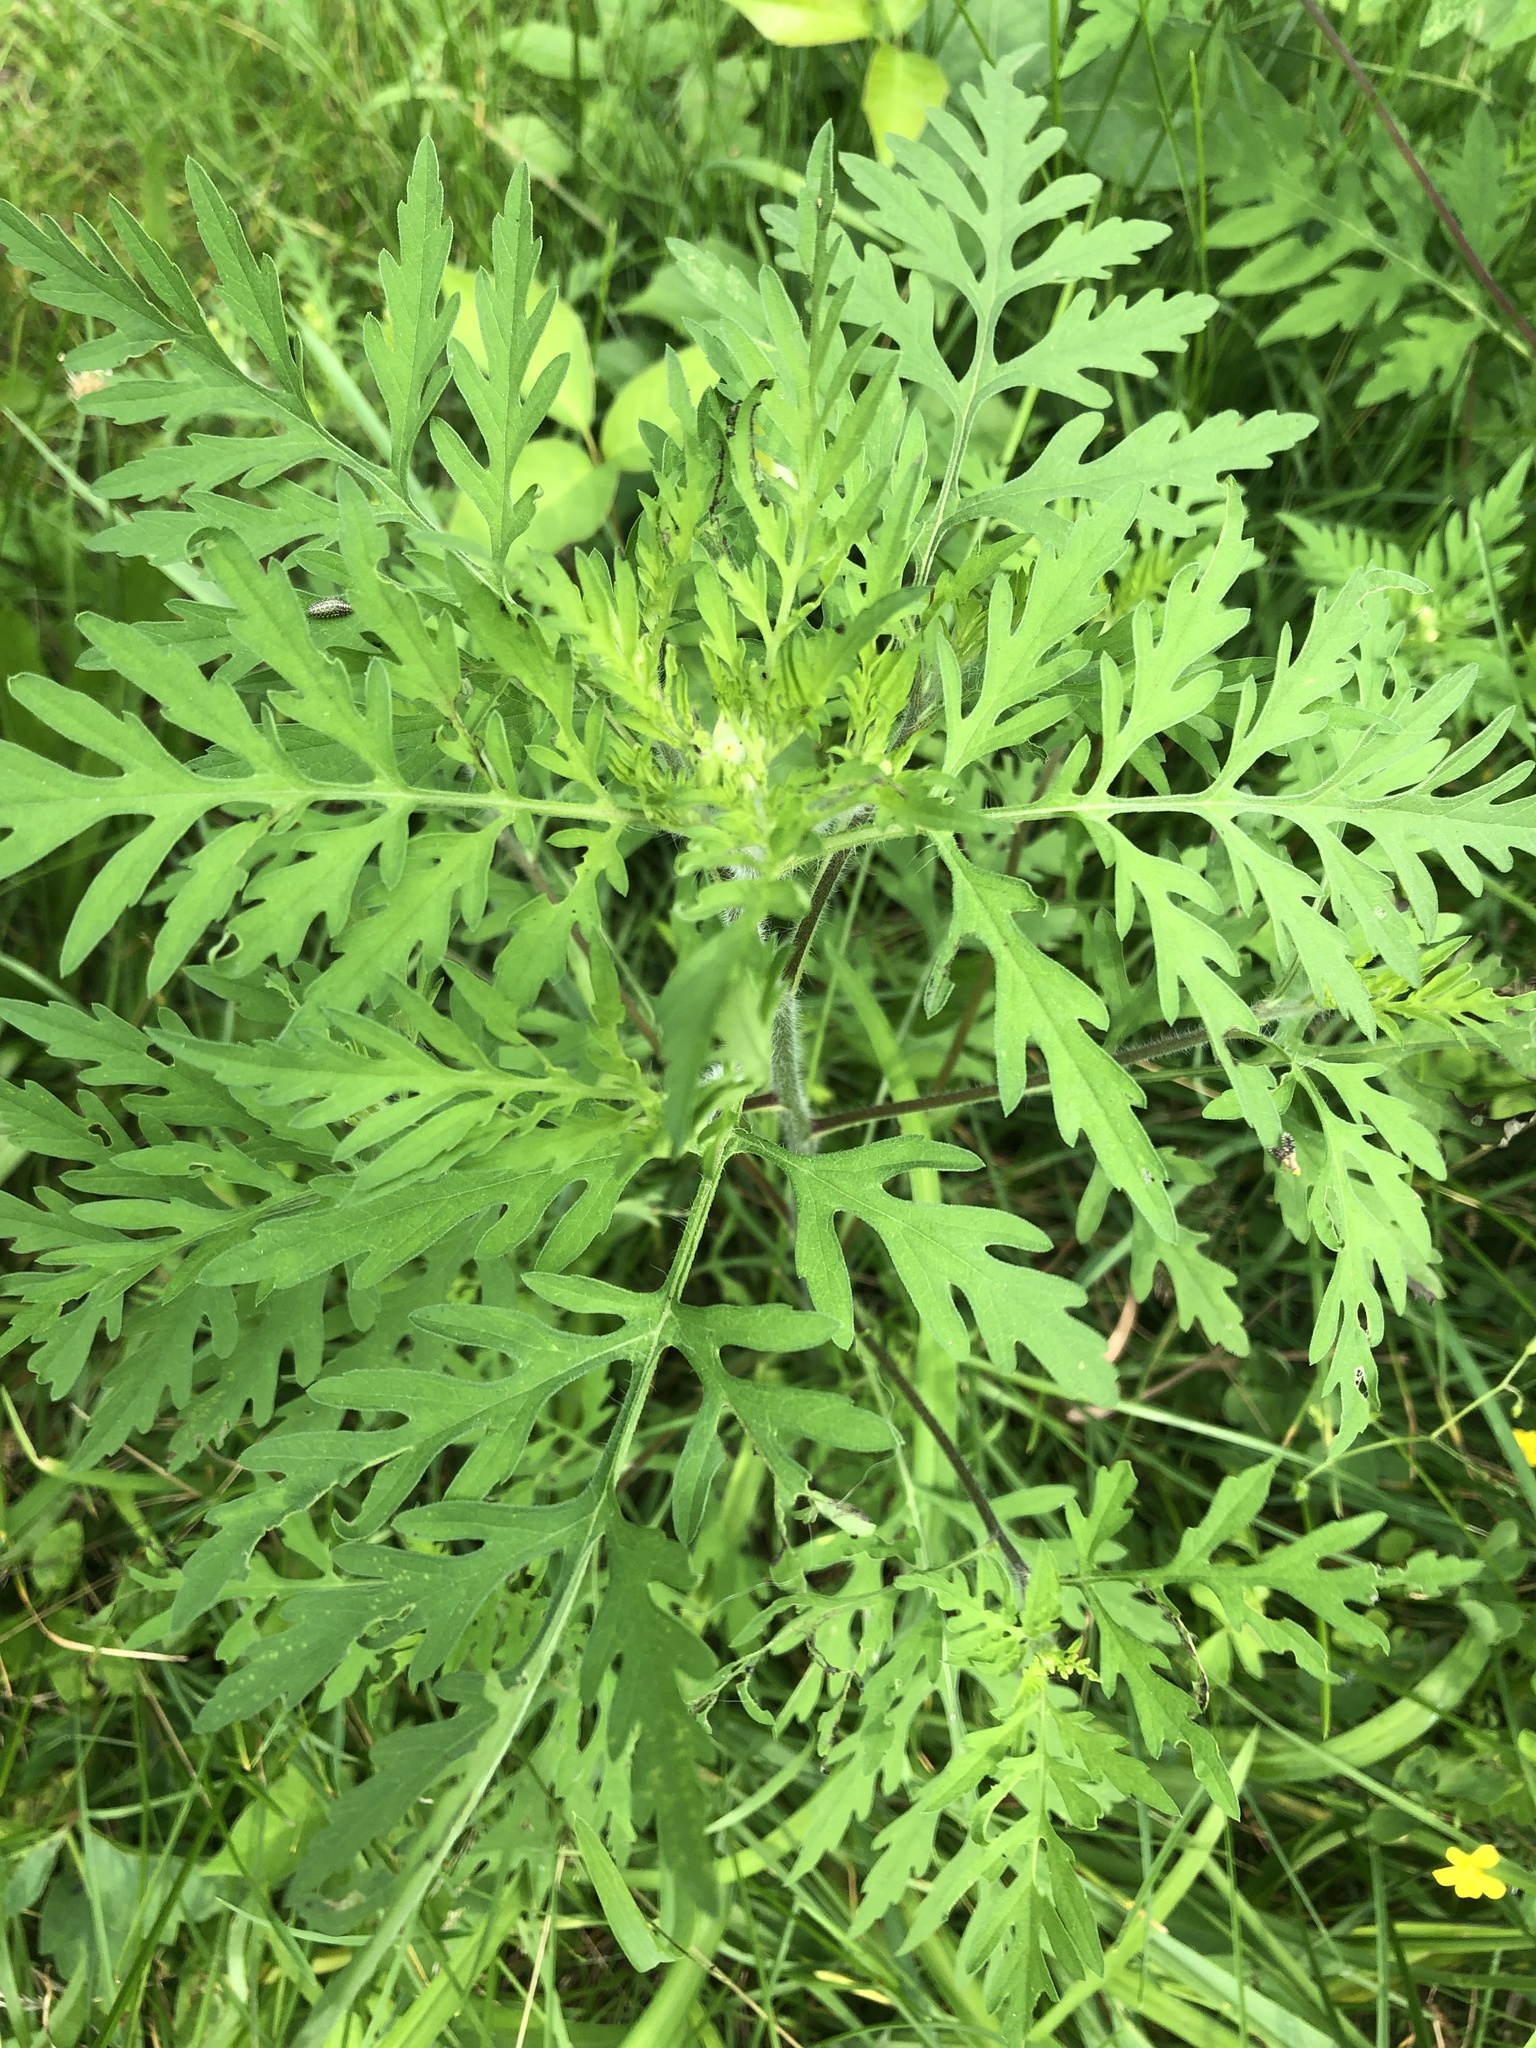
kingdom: Plantae
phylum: Tracheophyta
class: Magnoliopsida
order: Asterales
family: Asteraceae
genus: Ambrosia
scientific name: Ambrosia artemisiifolia
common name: Annual ragweed
